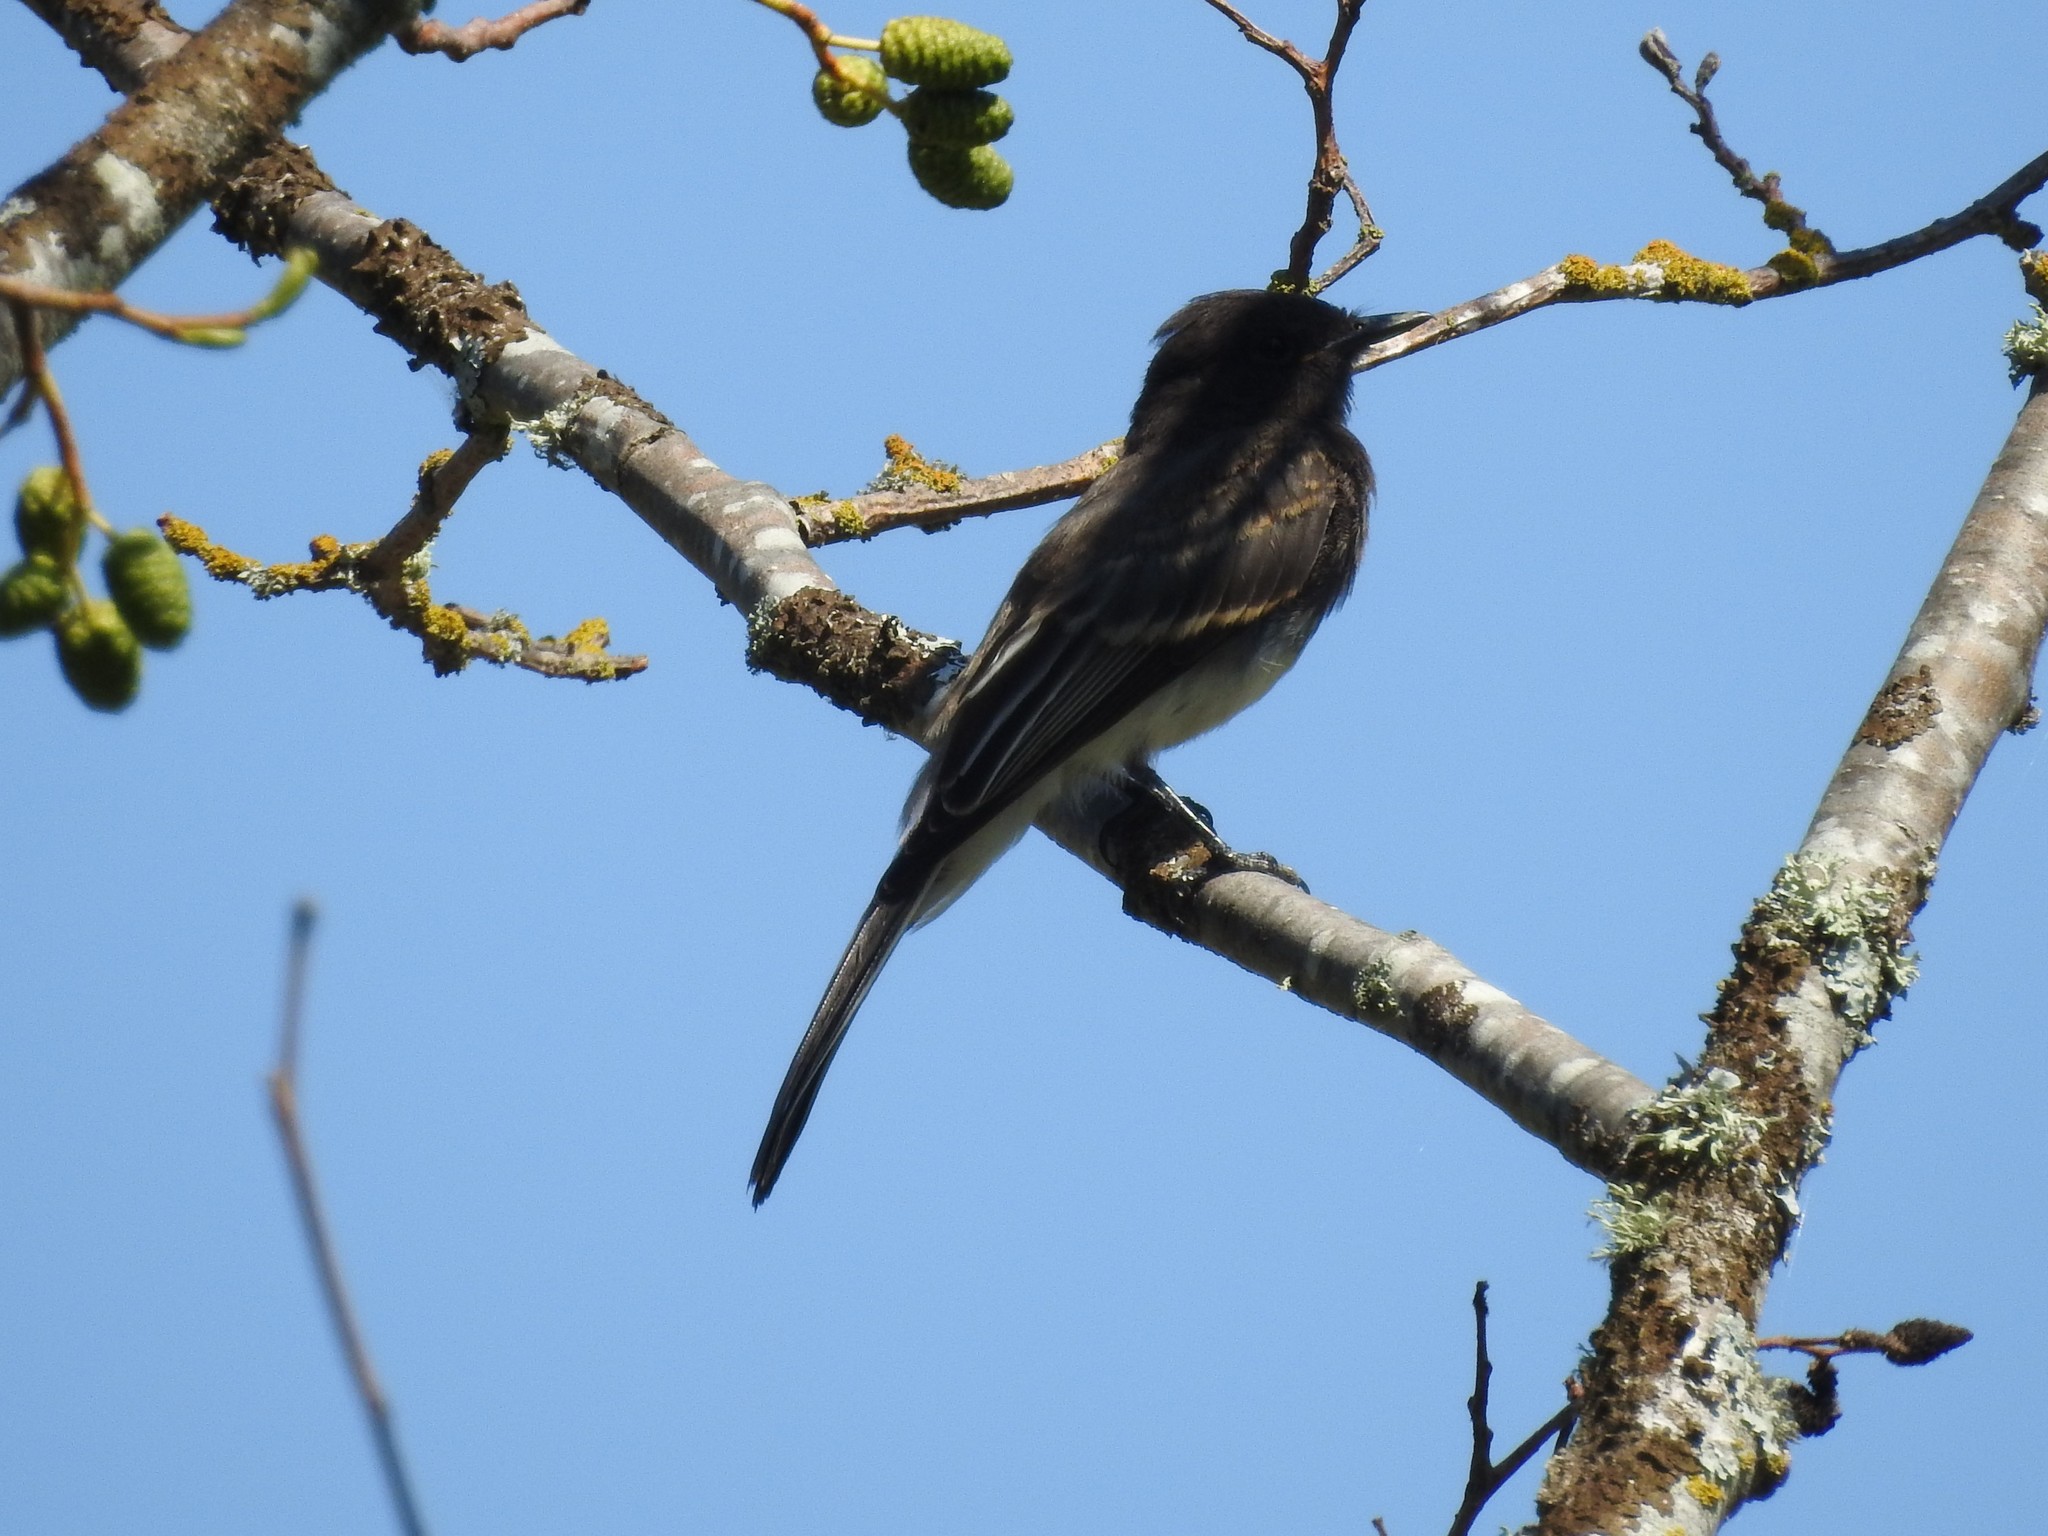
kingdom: Animalia
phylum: Chordata
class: Aves
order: Passeriformes
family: Tyrannidae
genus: Sayornis
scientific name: Sayornis nigricans
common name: Black phoebe
